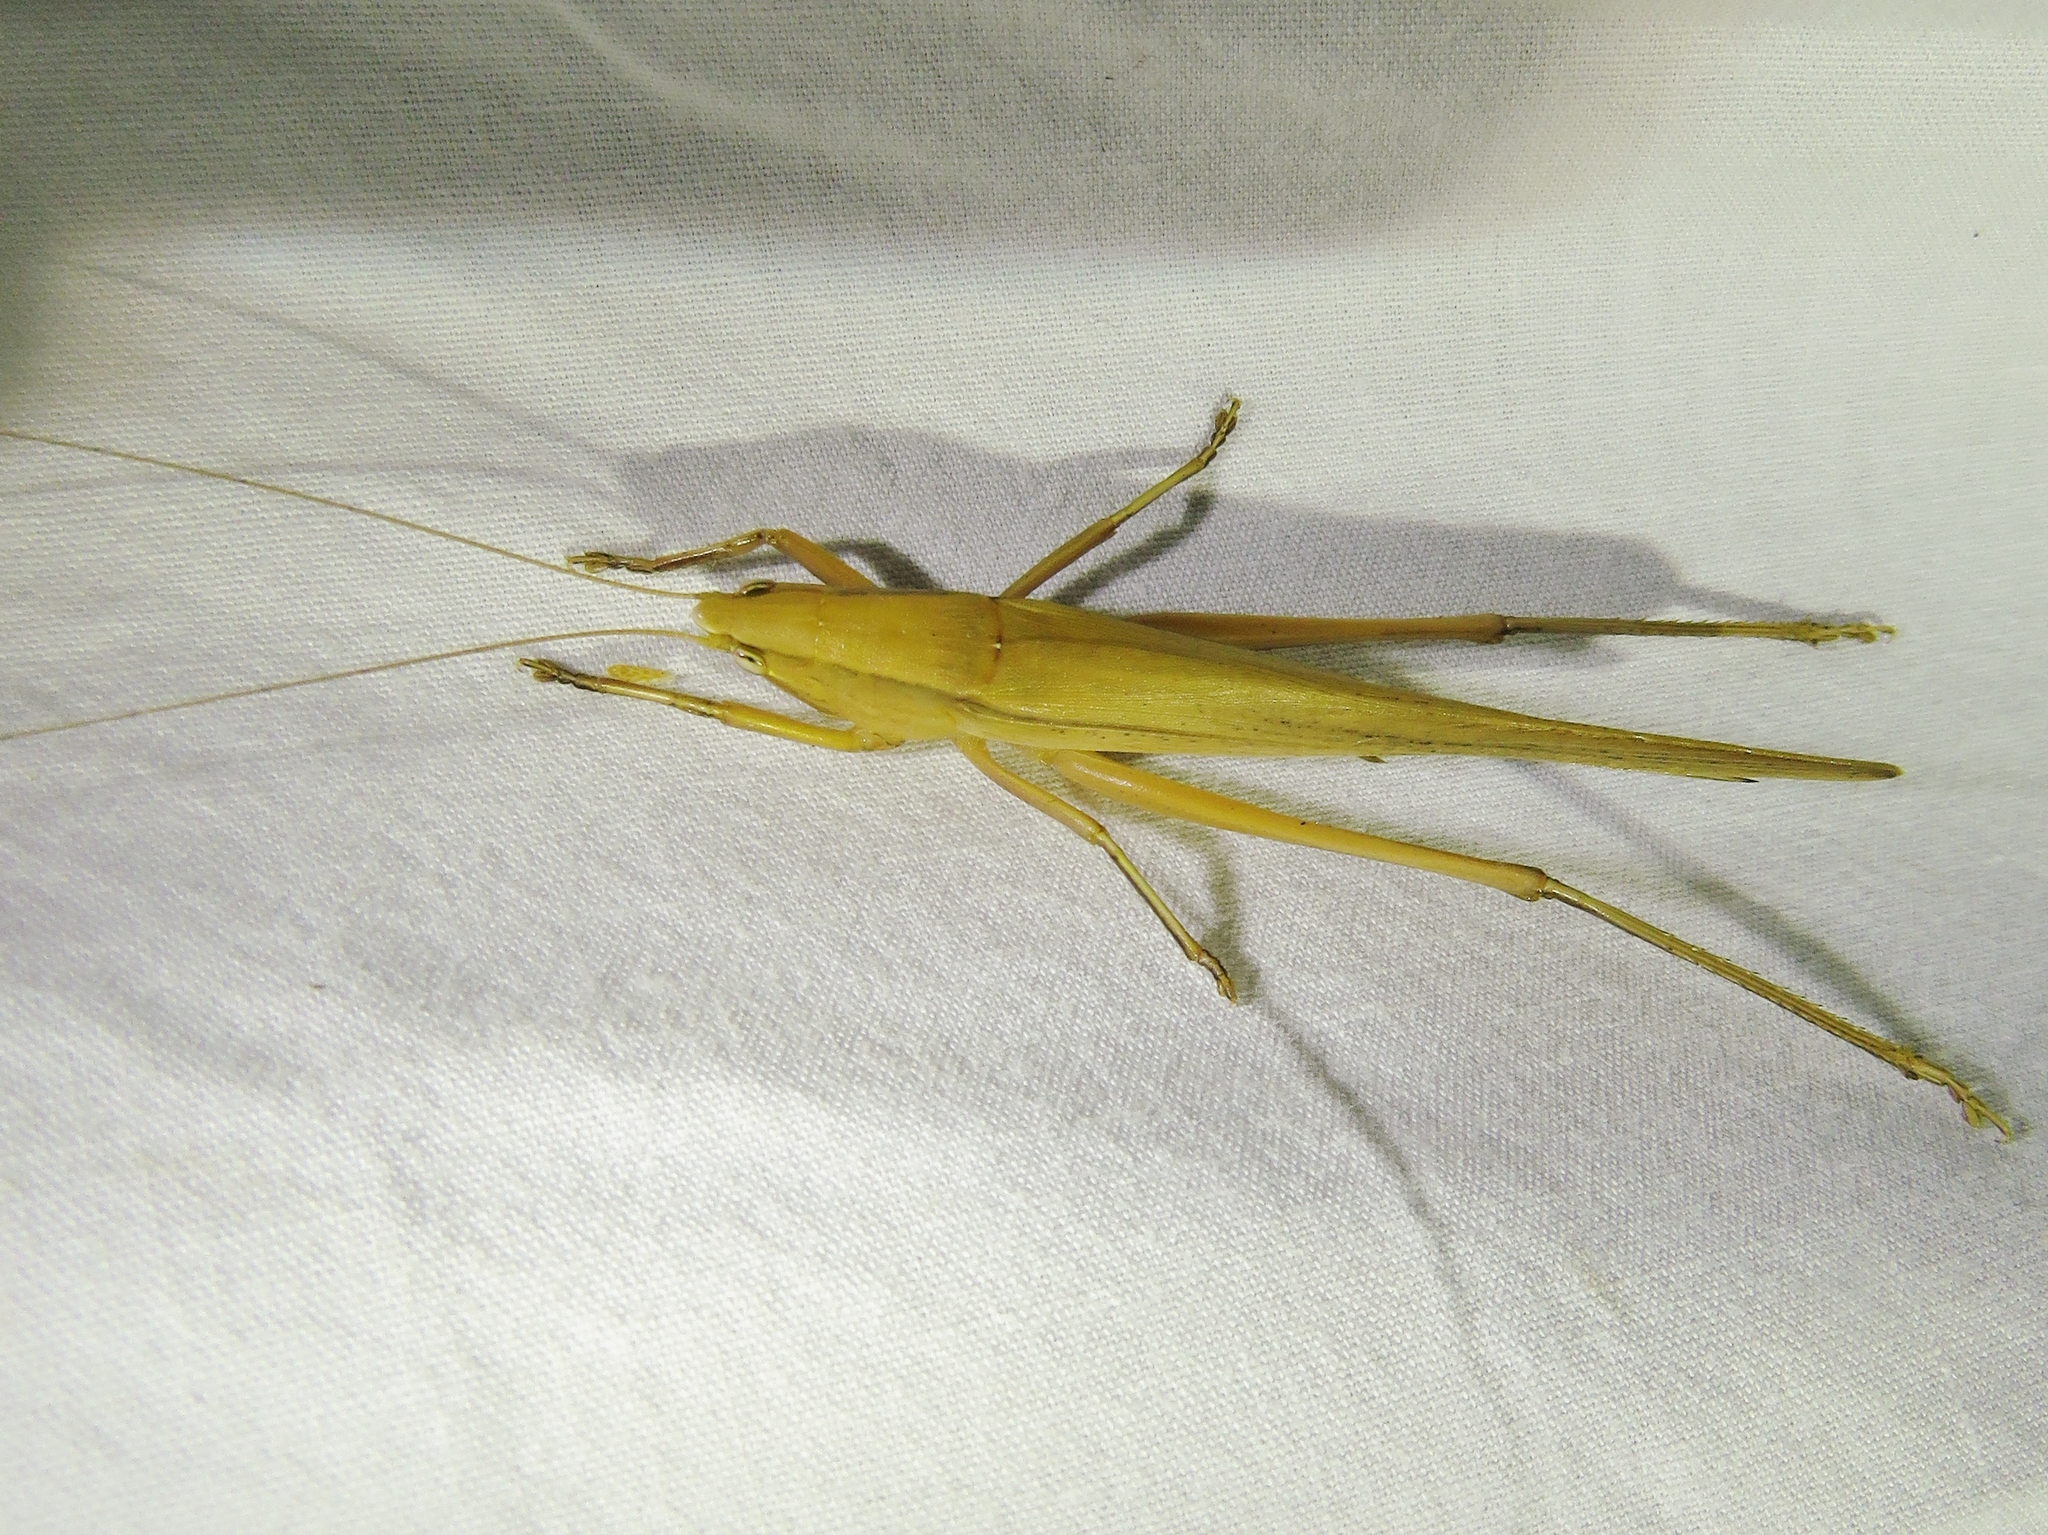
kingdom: Animalia
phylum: Arthropoda
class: Insecta
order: Orthoptera
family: Tettigoniidae
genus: Neoconocephalus
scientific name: Neoconocephalus triops
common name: Broad-tipped conehead
